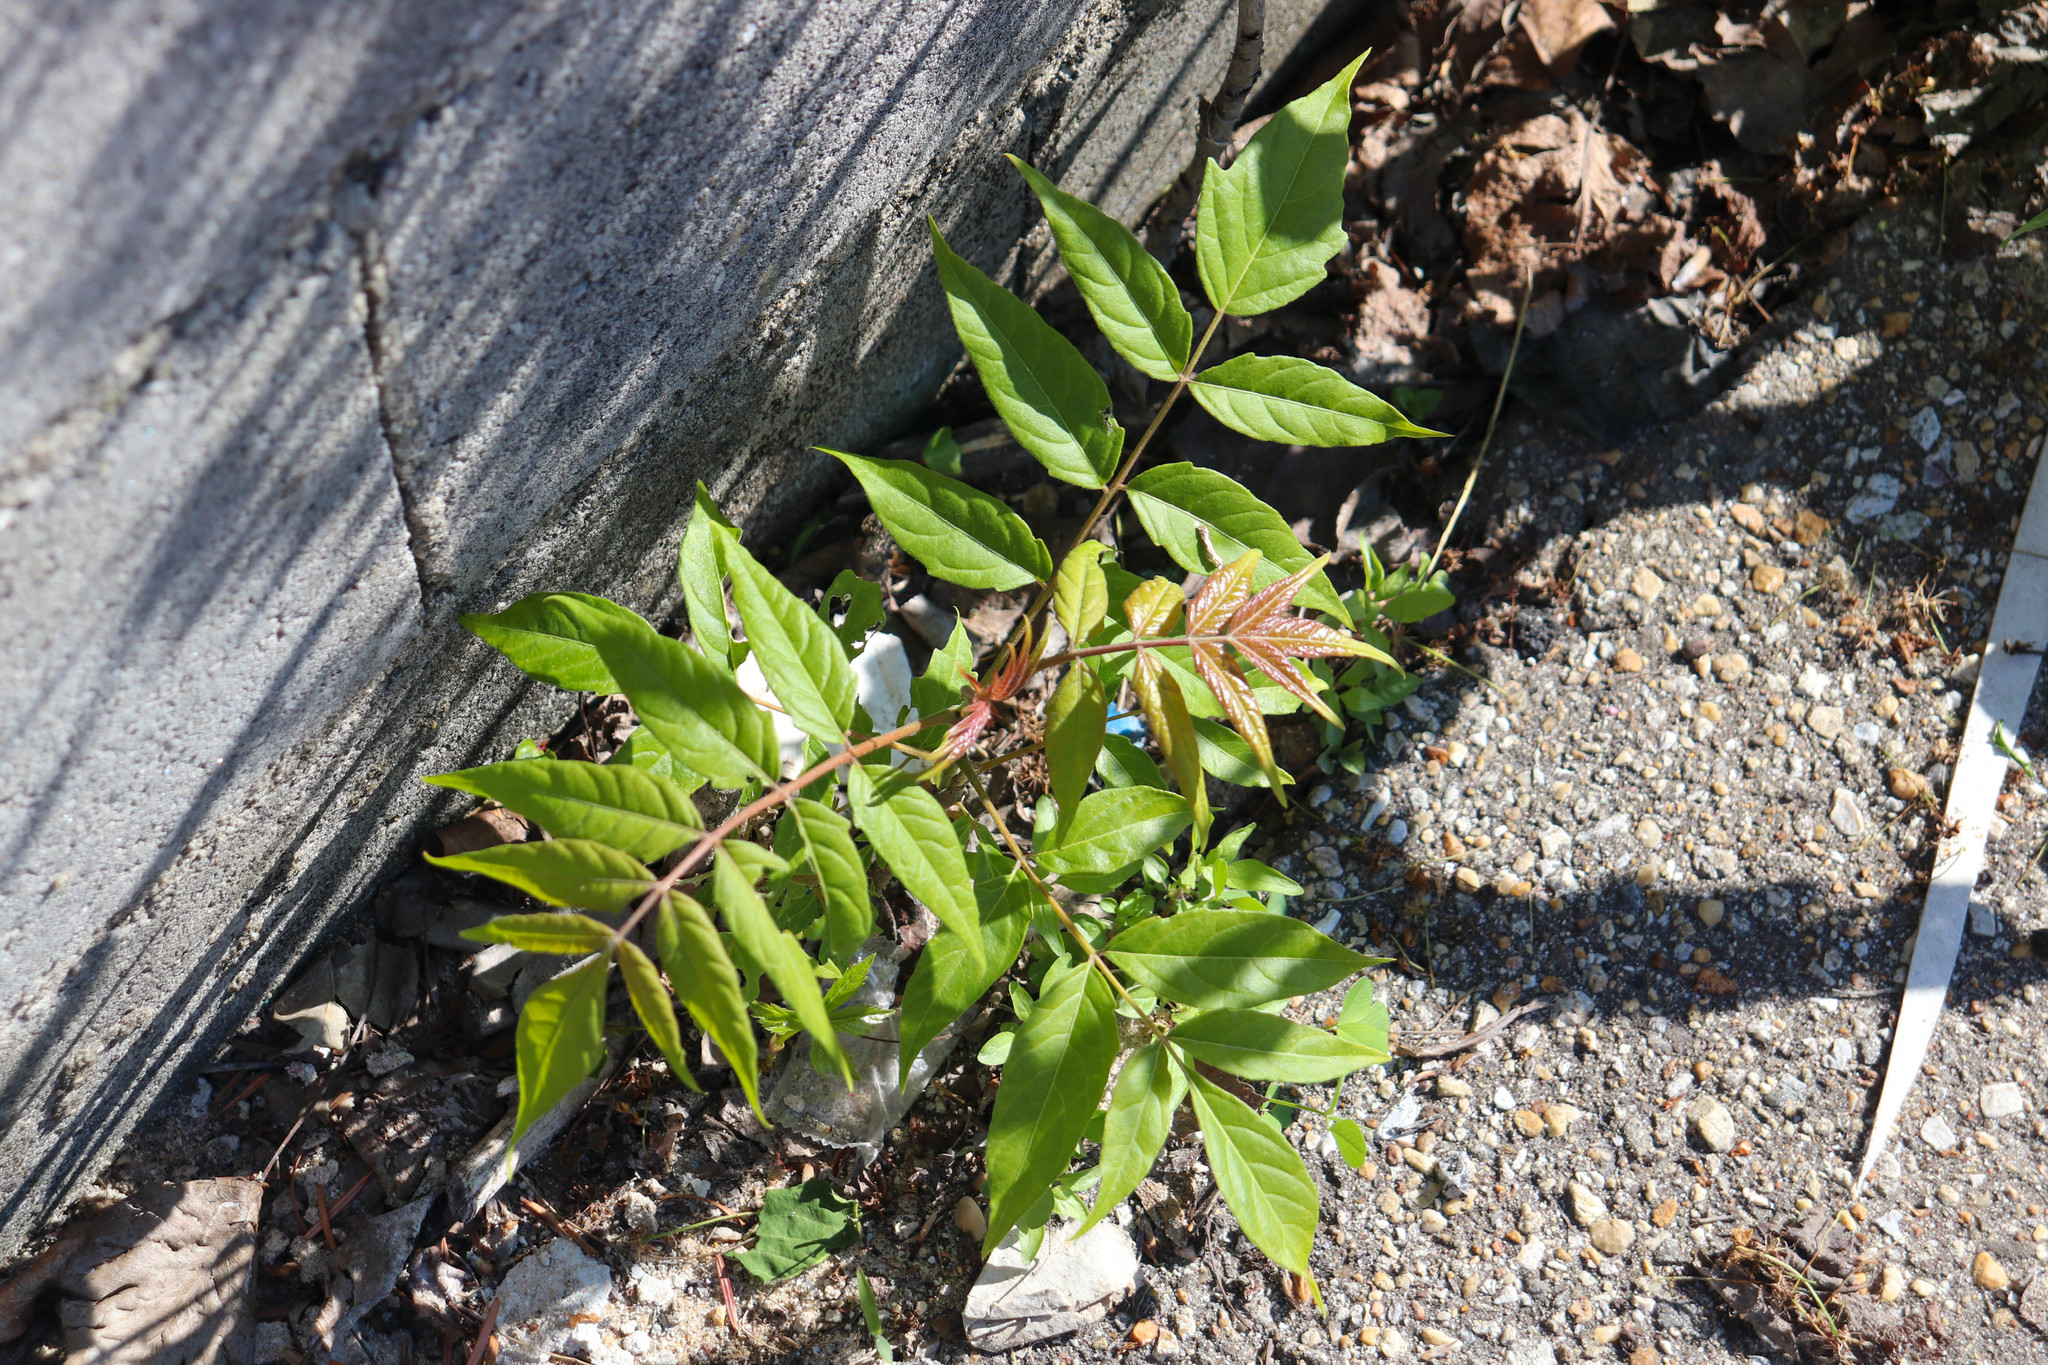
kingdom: Plantae
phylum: Tracheophyta
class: Magnoliopsida
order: Sapindales
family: Simaroubaceae
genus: Ailanthus
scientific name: Ailanthus altissima
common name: Tree-of-heaven
